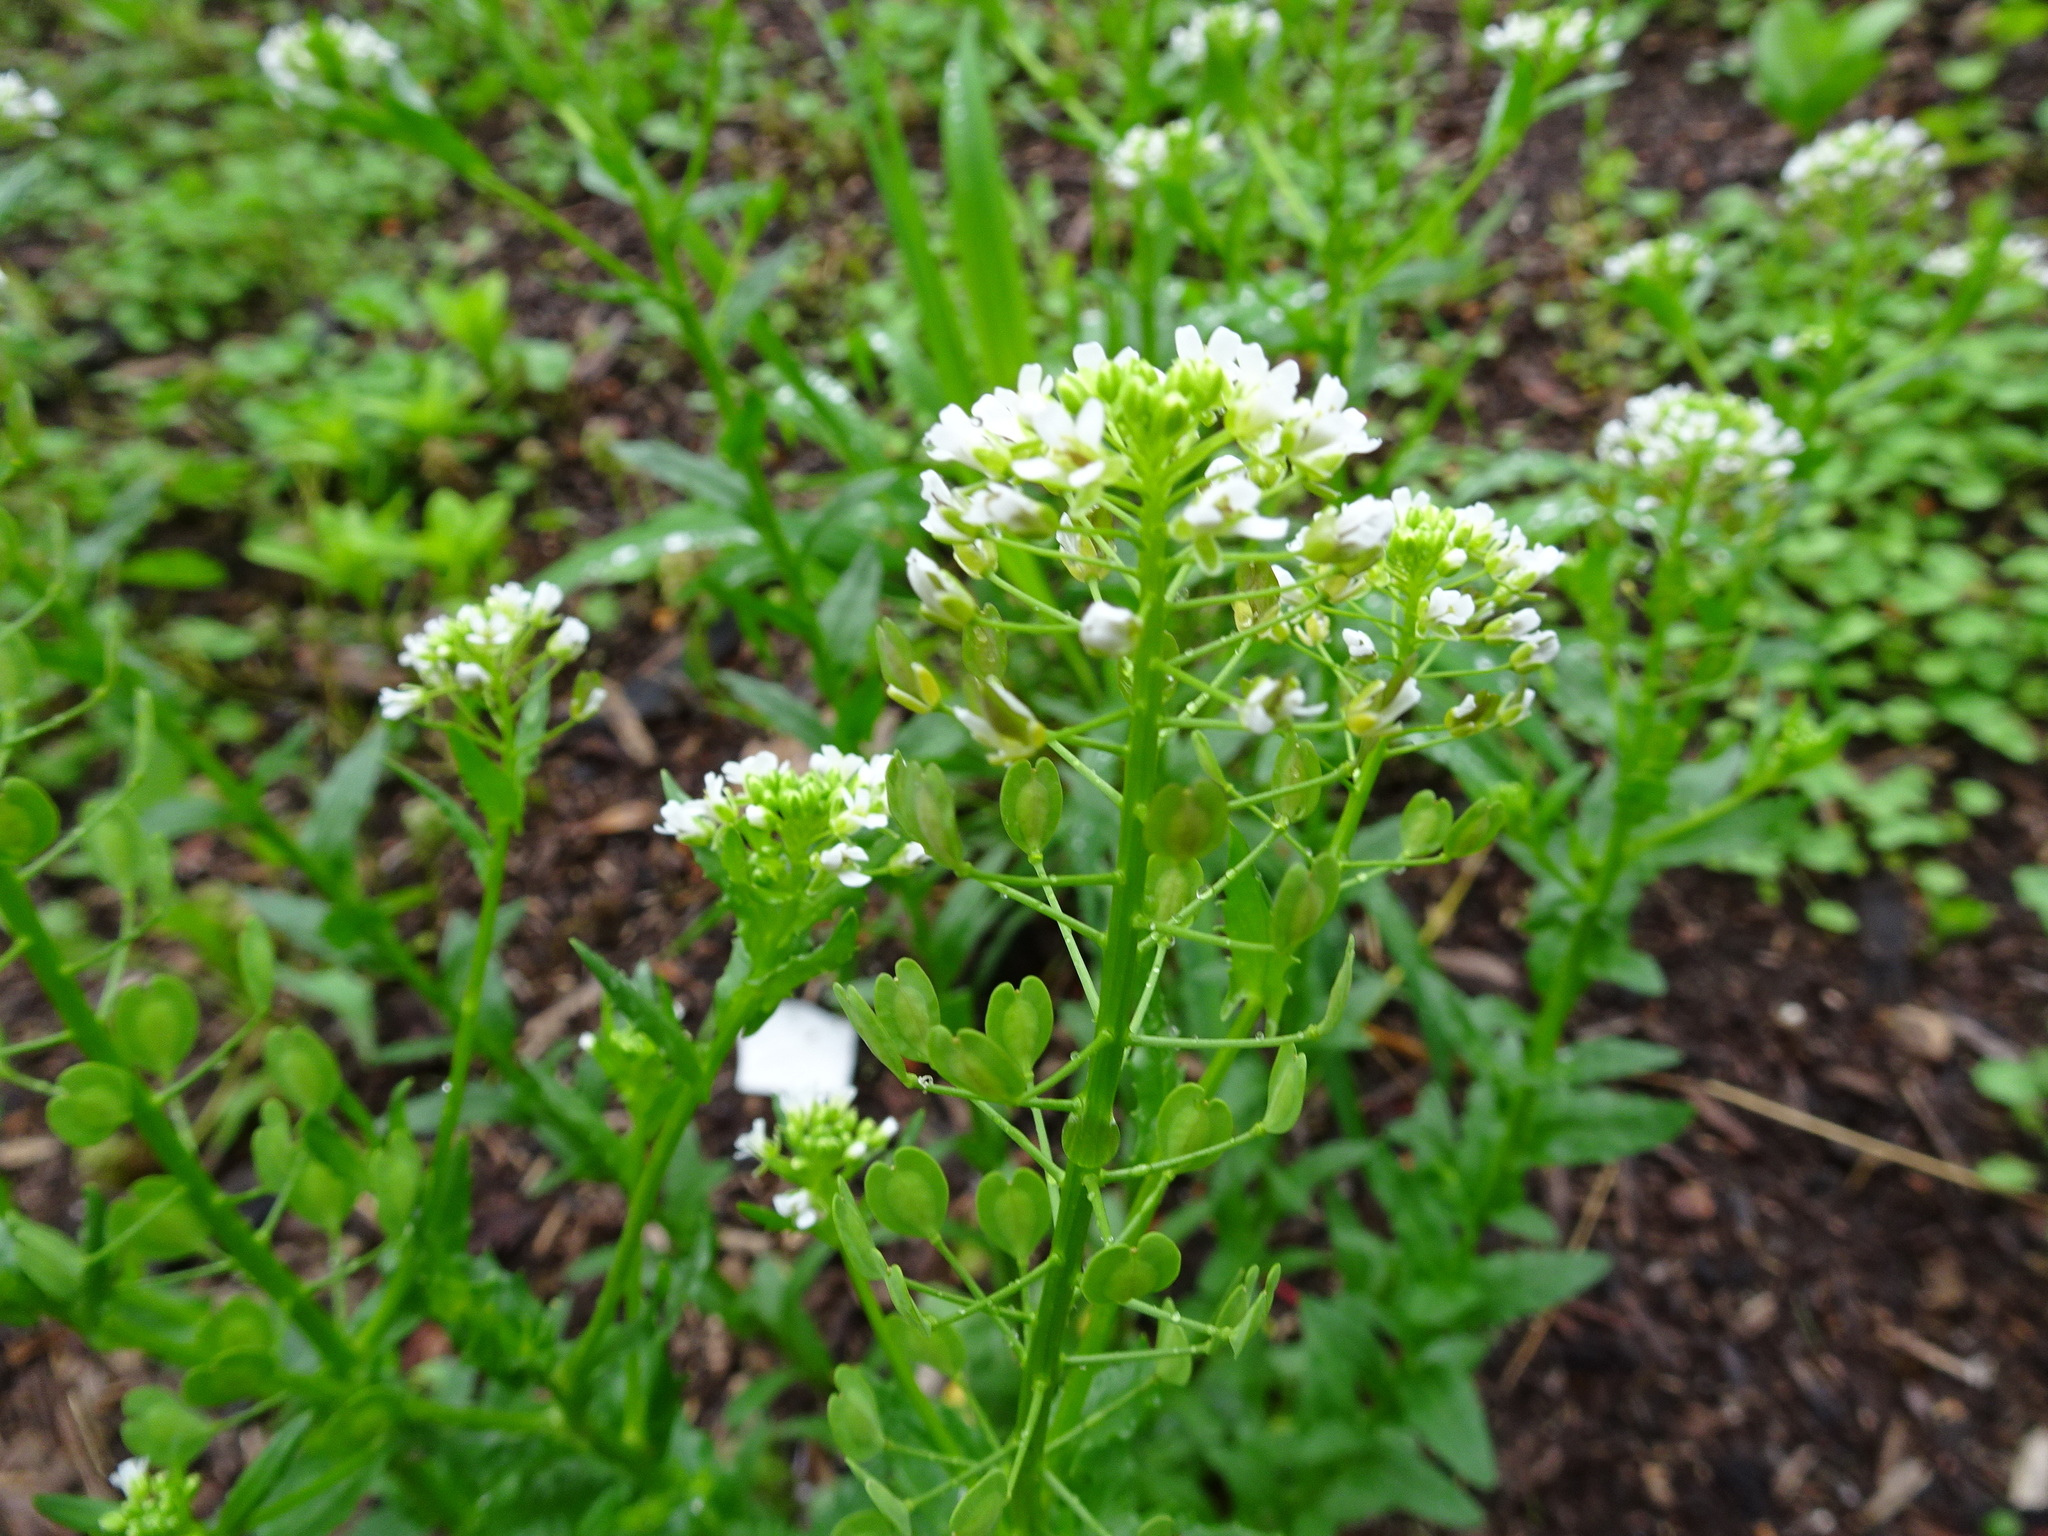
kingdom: Plantae
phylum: Tracheophyta
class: Magnoliopsida
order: Brassicales
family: Brassicaceae
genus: Thlaspi
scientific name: Thlaspi arvense
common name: Field pennycress
